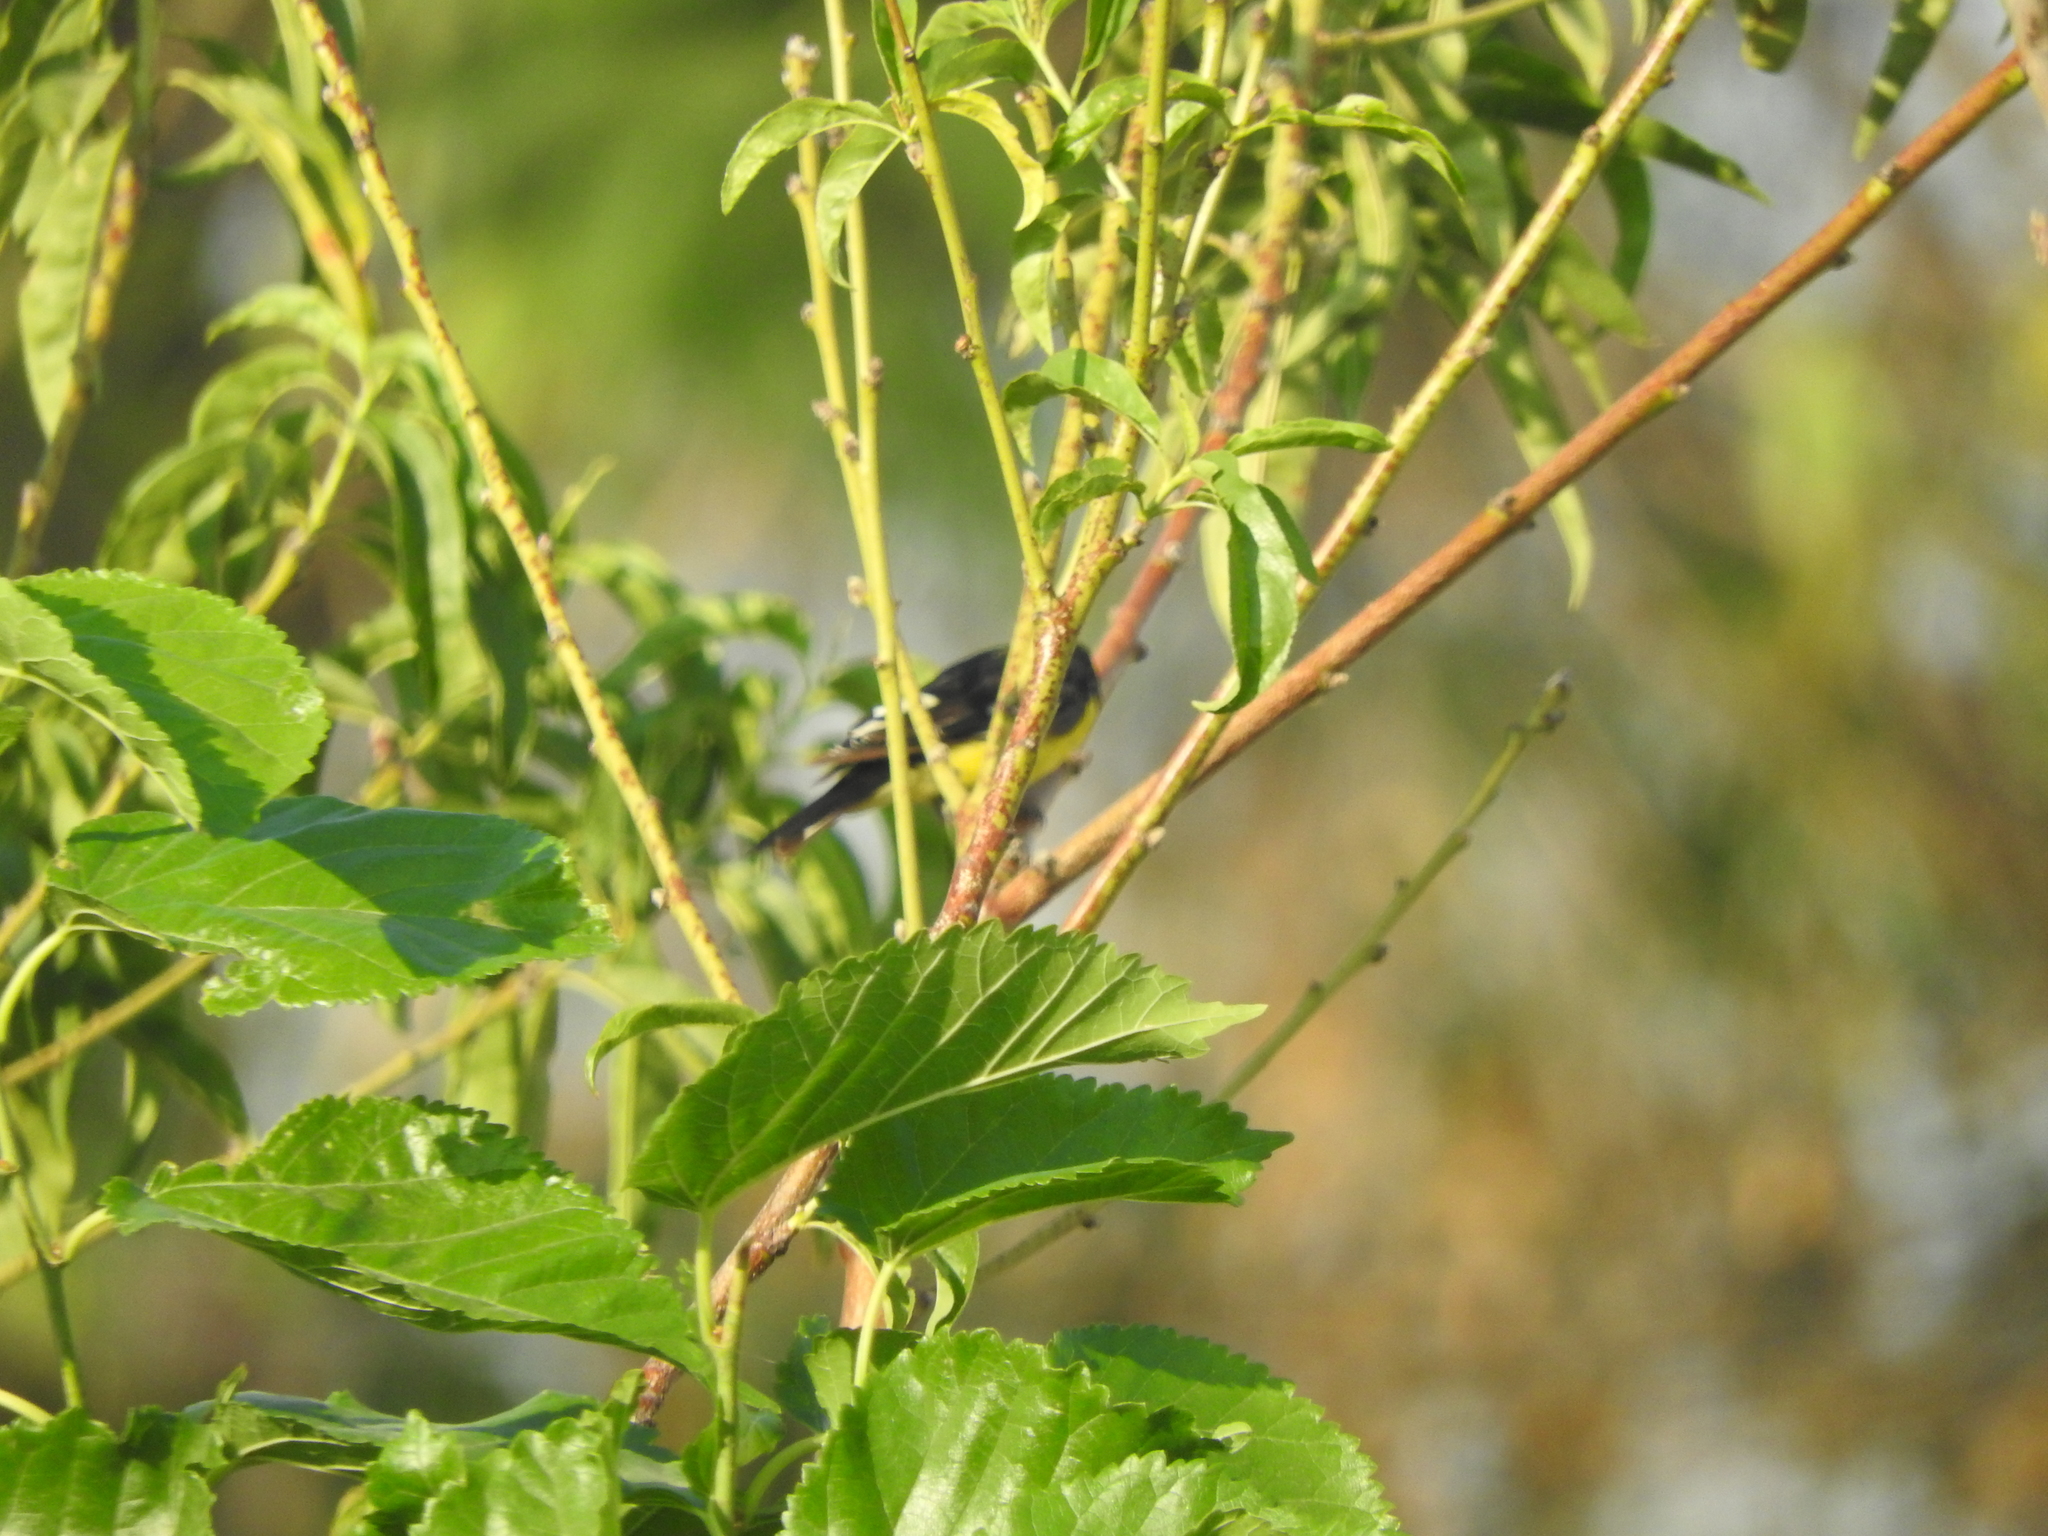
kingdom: Animalia
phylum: Chordata
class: Aves
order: Passeriformes
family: Fringillidae
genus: Spinus
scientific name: Spinus psaltria
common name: Lesser goldfinch
